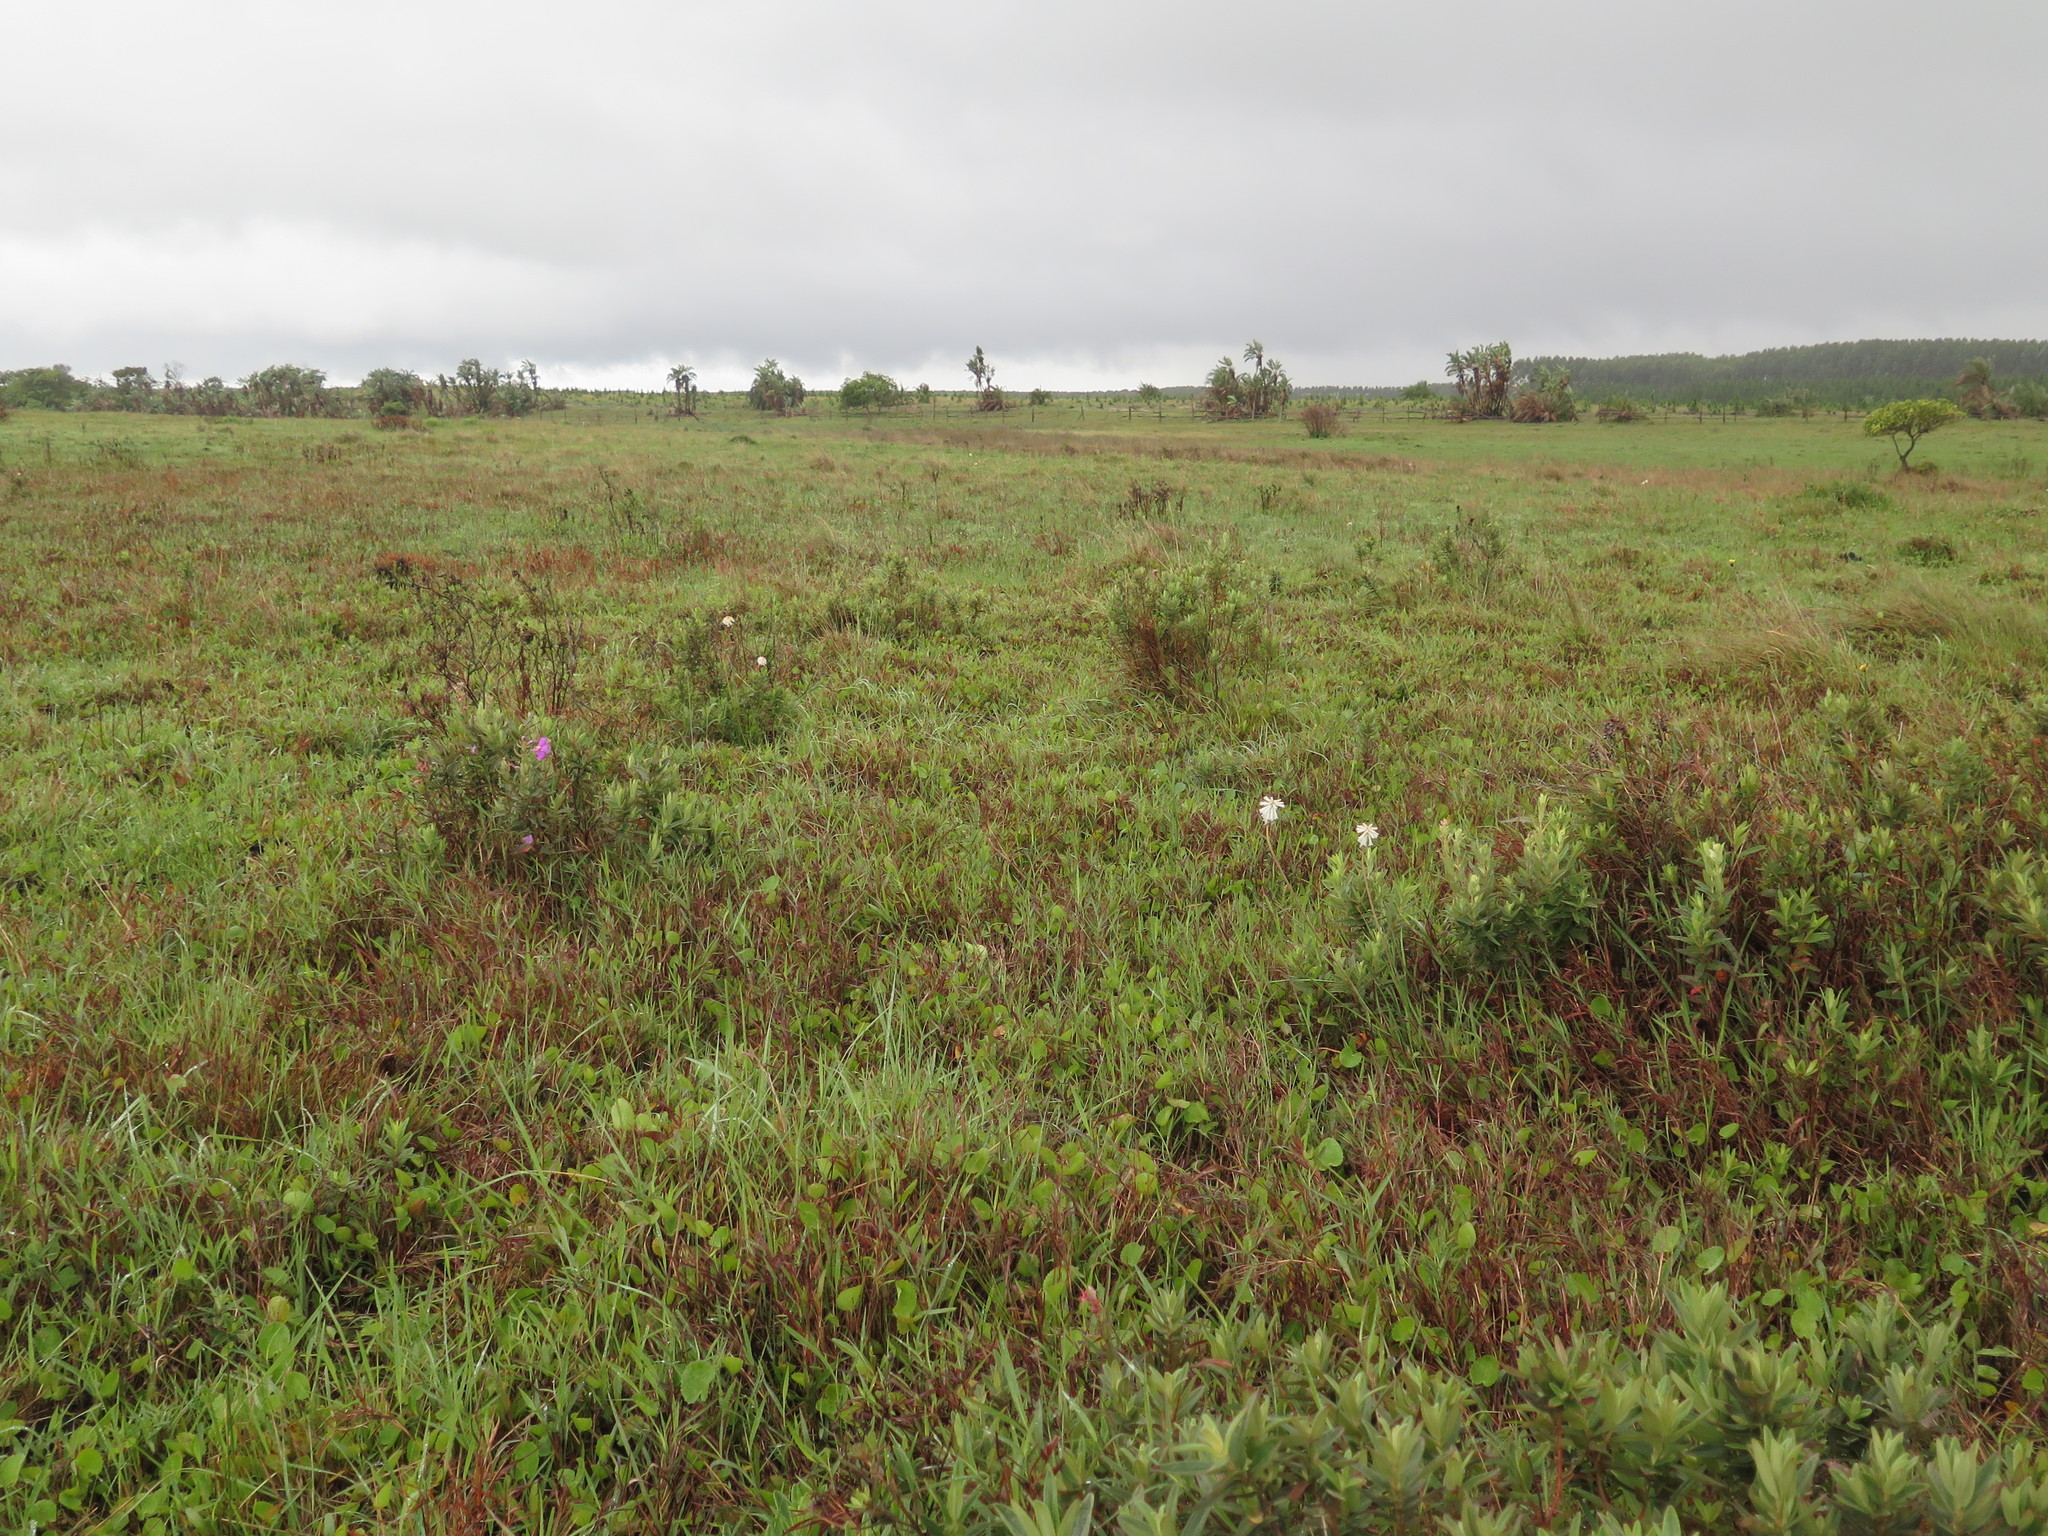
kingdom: Plantae
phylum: Tracheophyta
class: Liliopsida
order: Asparagales
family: Asphodelaceae
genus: Kniphofia
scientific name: Kniphofia leucocephala
